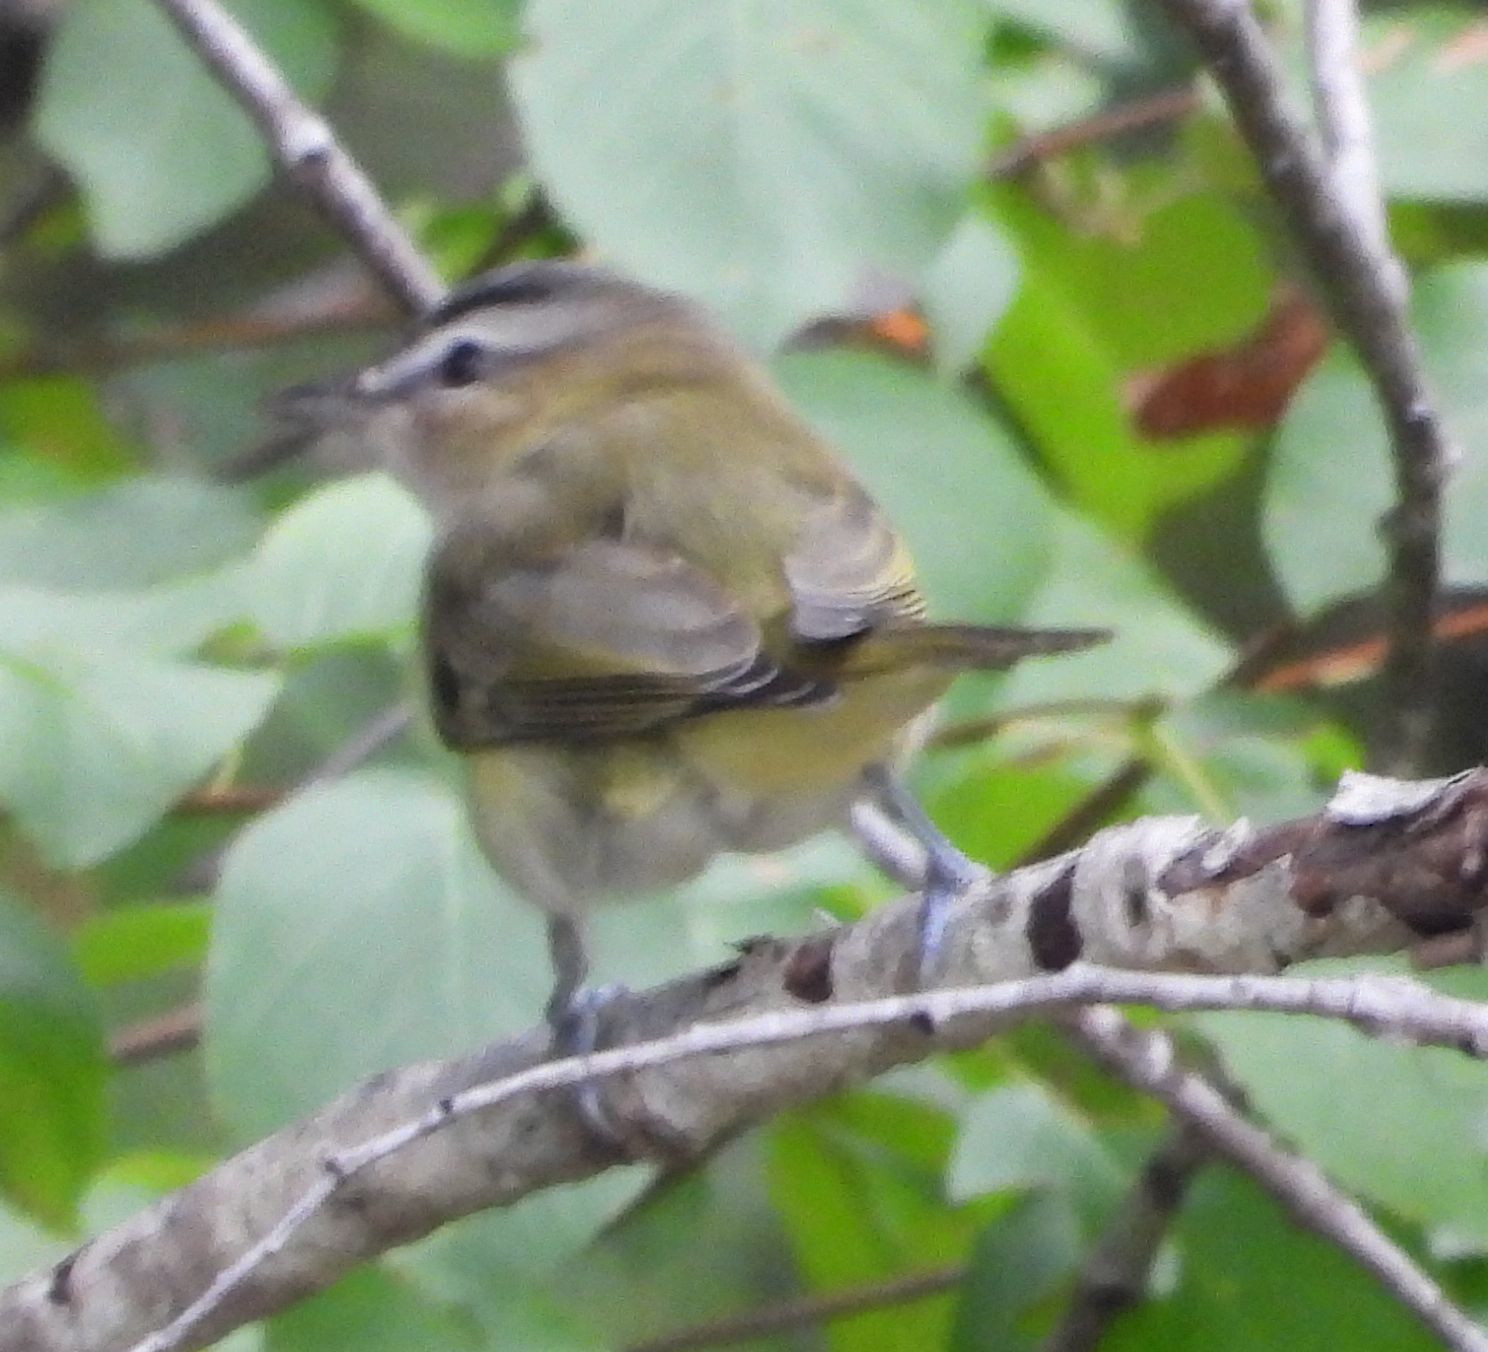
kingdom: Animalia
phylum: Chordata
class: Aves
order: Passeriformes
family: Vireonidae
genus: Vireo
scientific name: Vireo olivaceus
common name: Red-eyed vireo
